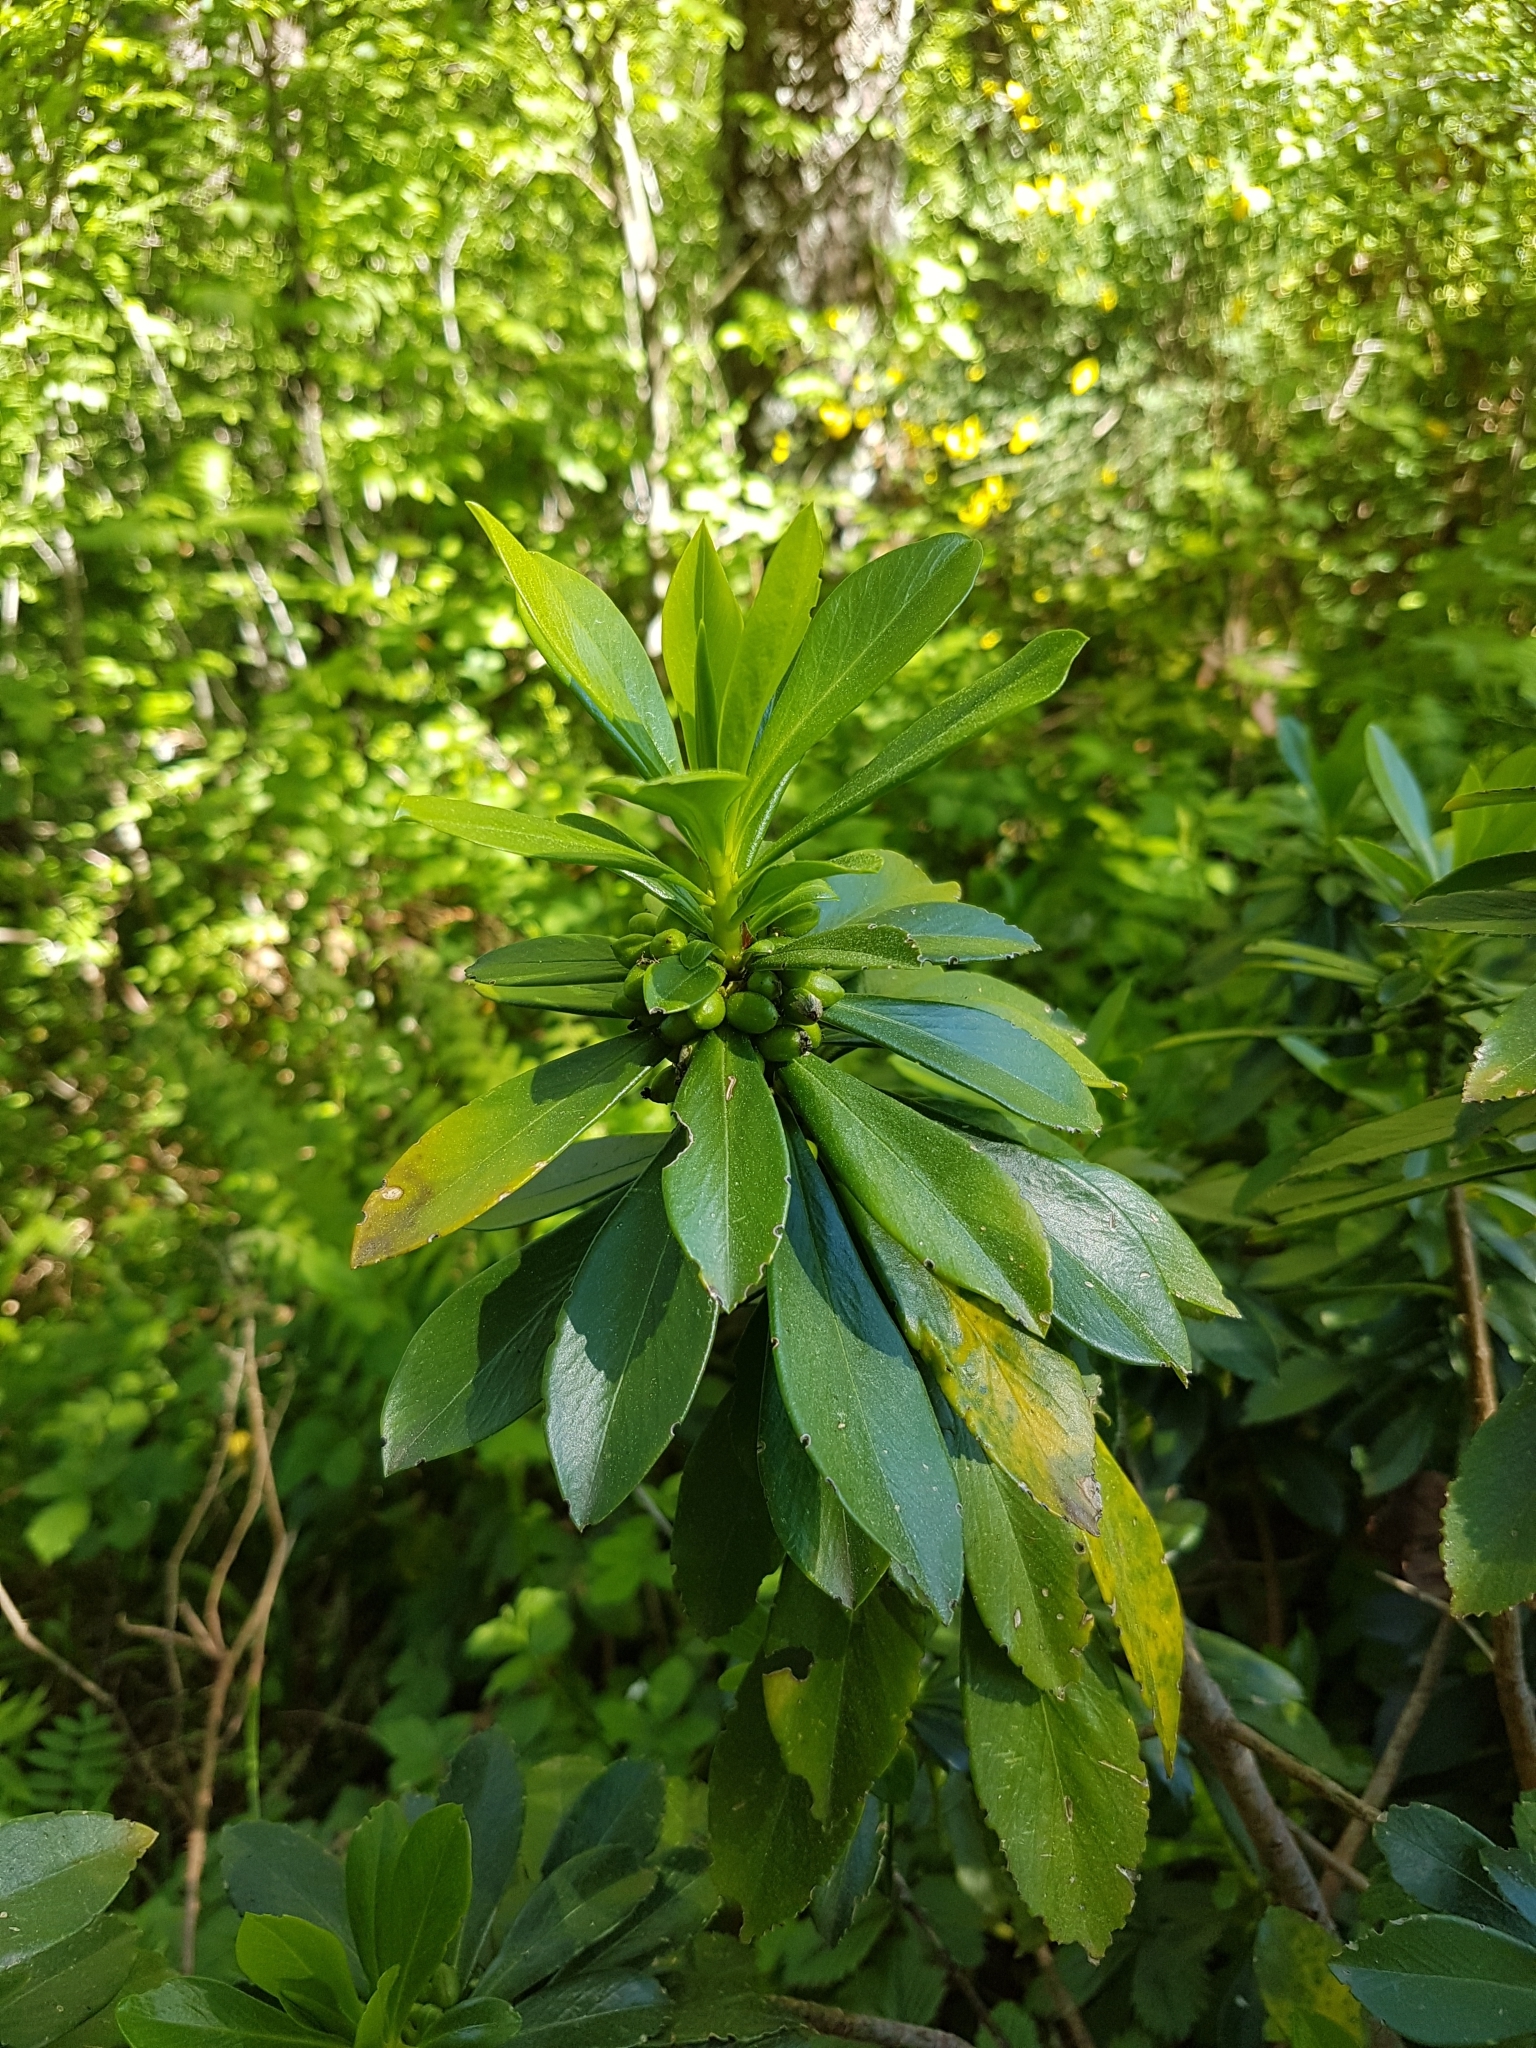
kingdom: Plantae
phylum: Tracheophyta
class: Magnoliopsida
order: Malvales
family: Thymelaeaceae
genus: Daphne
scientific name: Daphne laureola
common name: Spurge-laurel
